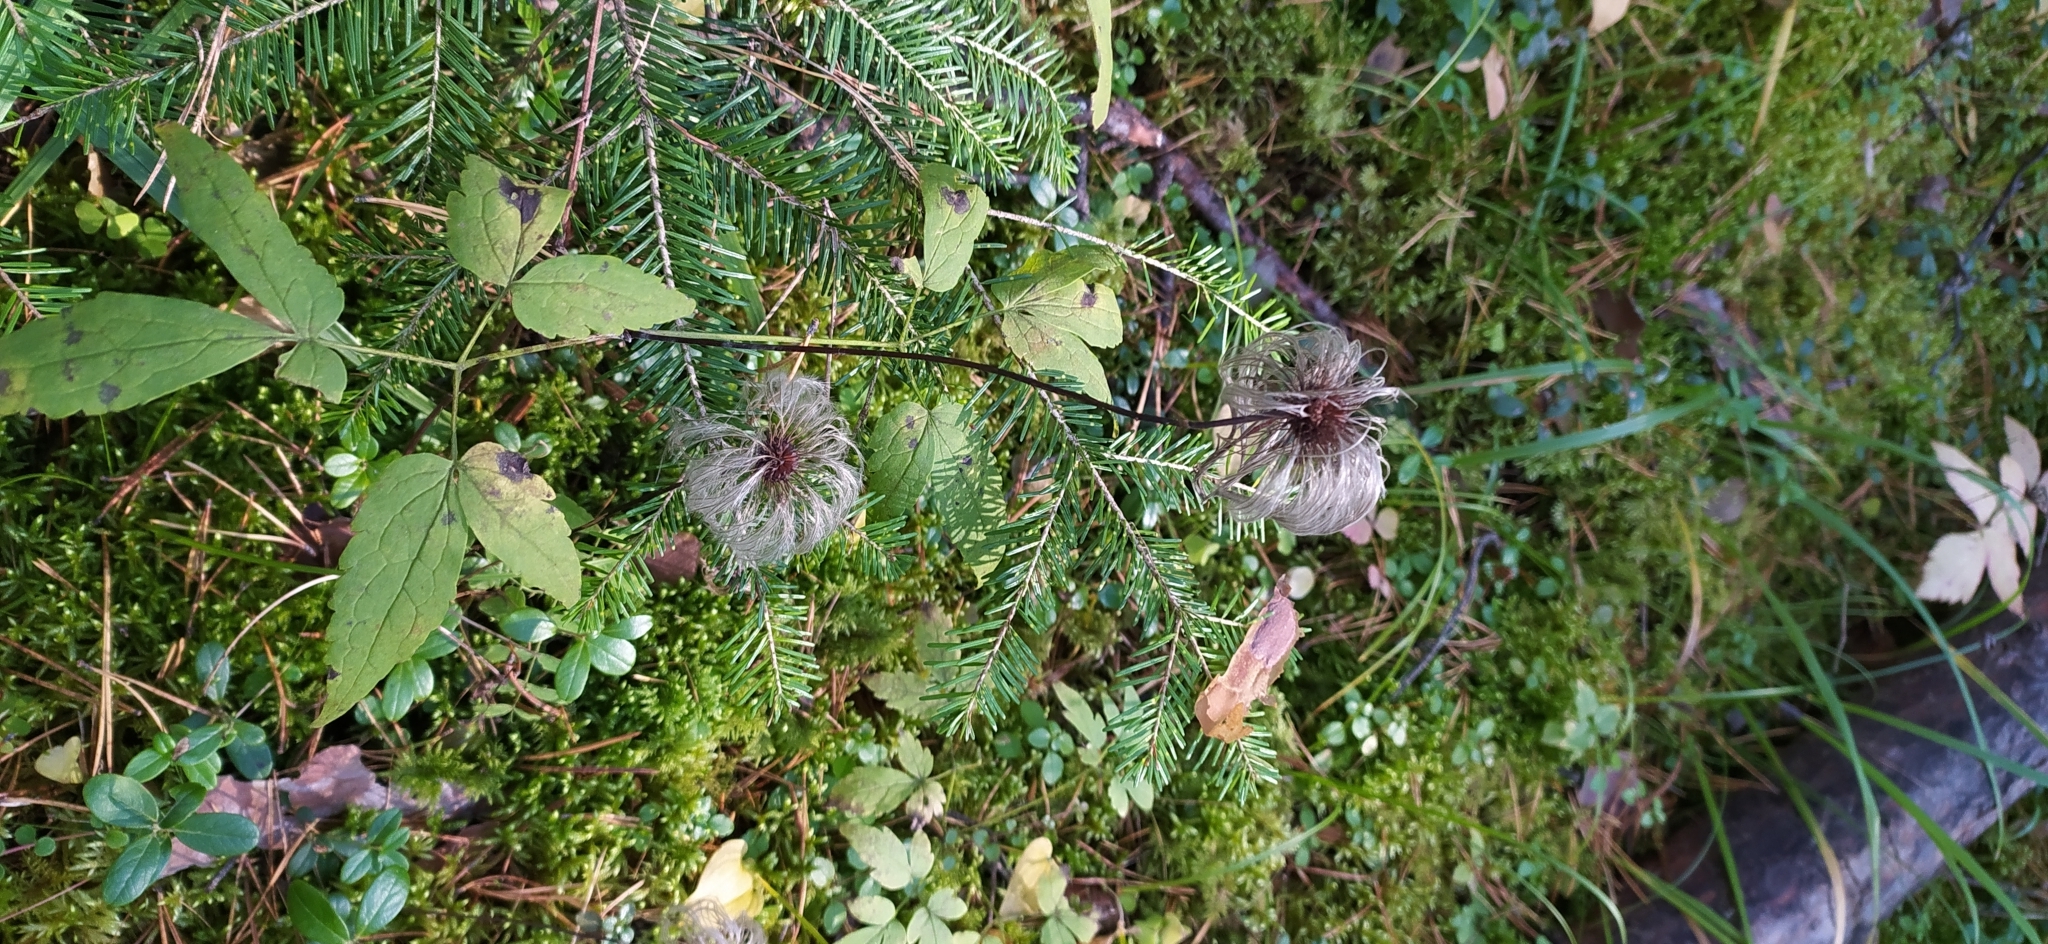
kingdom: Plantae
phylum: Tracheophyta
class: Magnoliopsida
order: Ranunculales
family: Ranunculaceae
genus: Clematis
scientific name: Clematis sibirica
